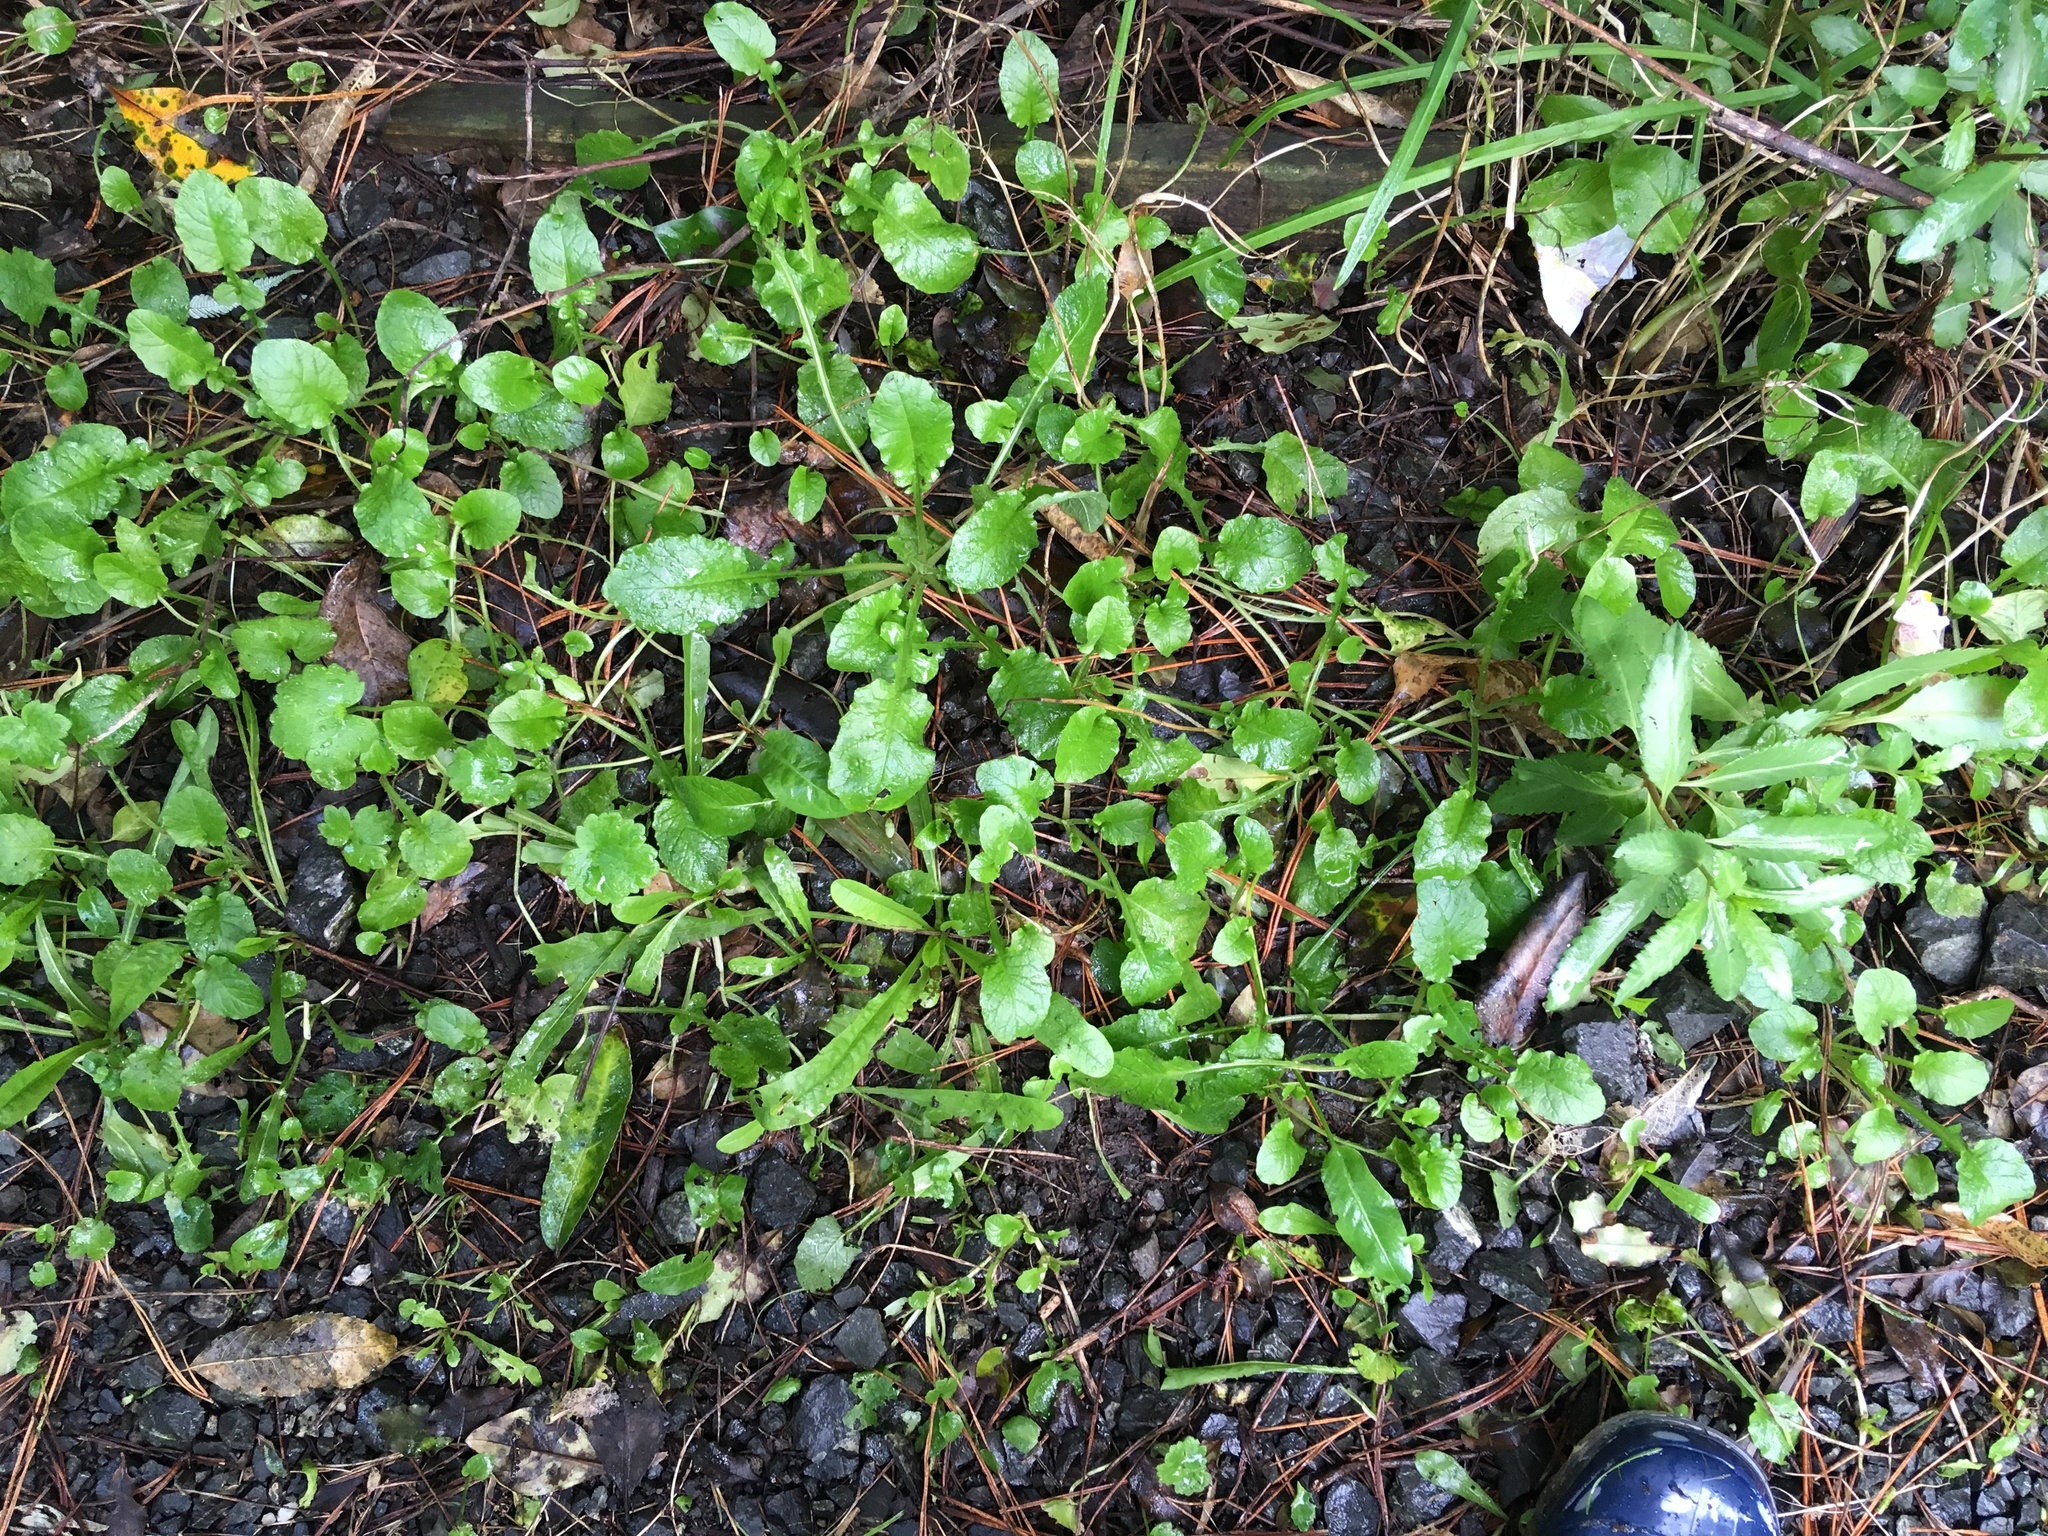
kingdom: Plantae
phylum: Tracheophyta
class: Magnoliopsida
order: Saxifragales
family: Haloragaceae
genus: Haloragis
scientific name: Haloragis erecta
